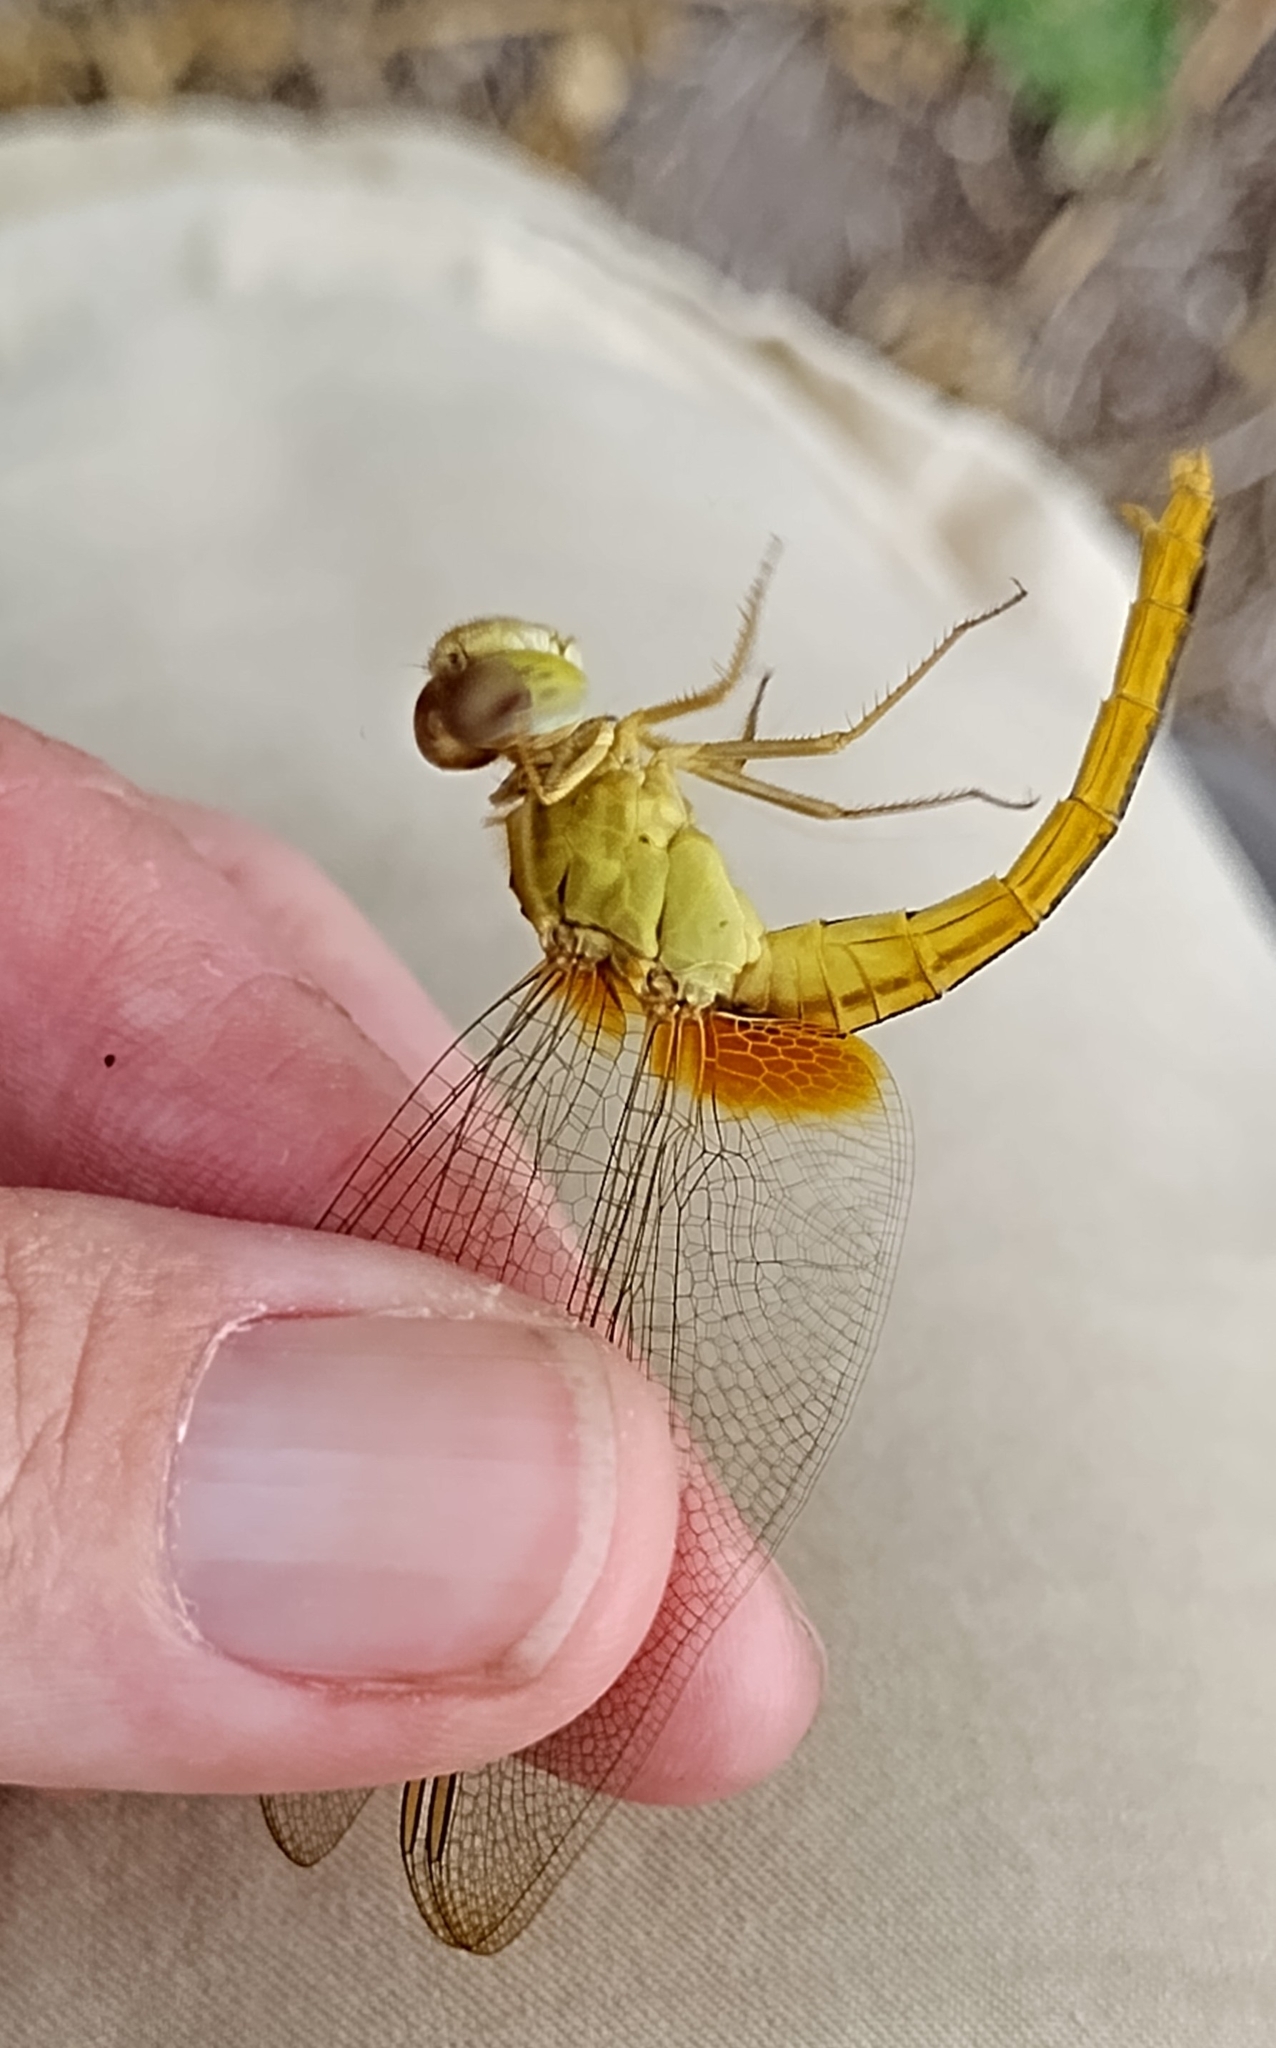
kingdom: Animalia
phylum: Arthropoda
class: Insecta
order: Odonata
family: Libellulidae
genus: Crocothemis
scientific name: Crocothemis servilia
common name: Scarlet skimmer
